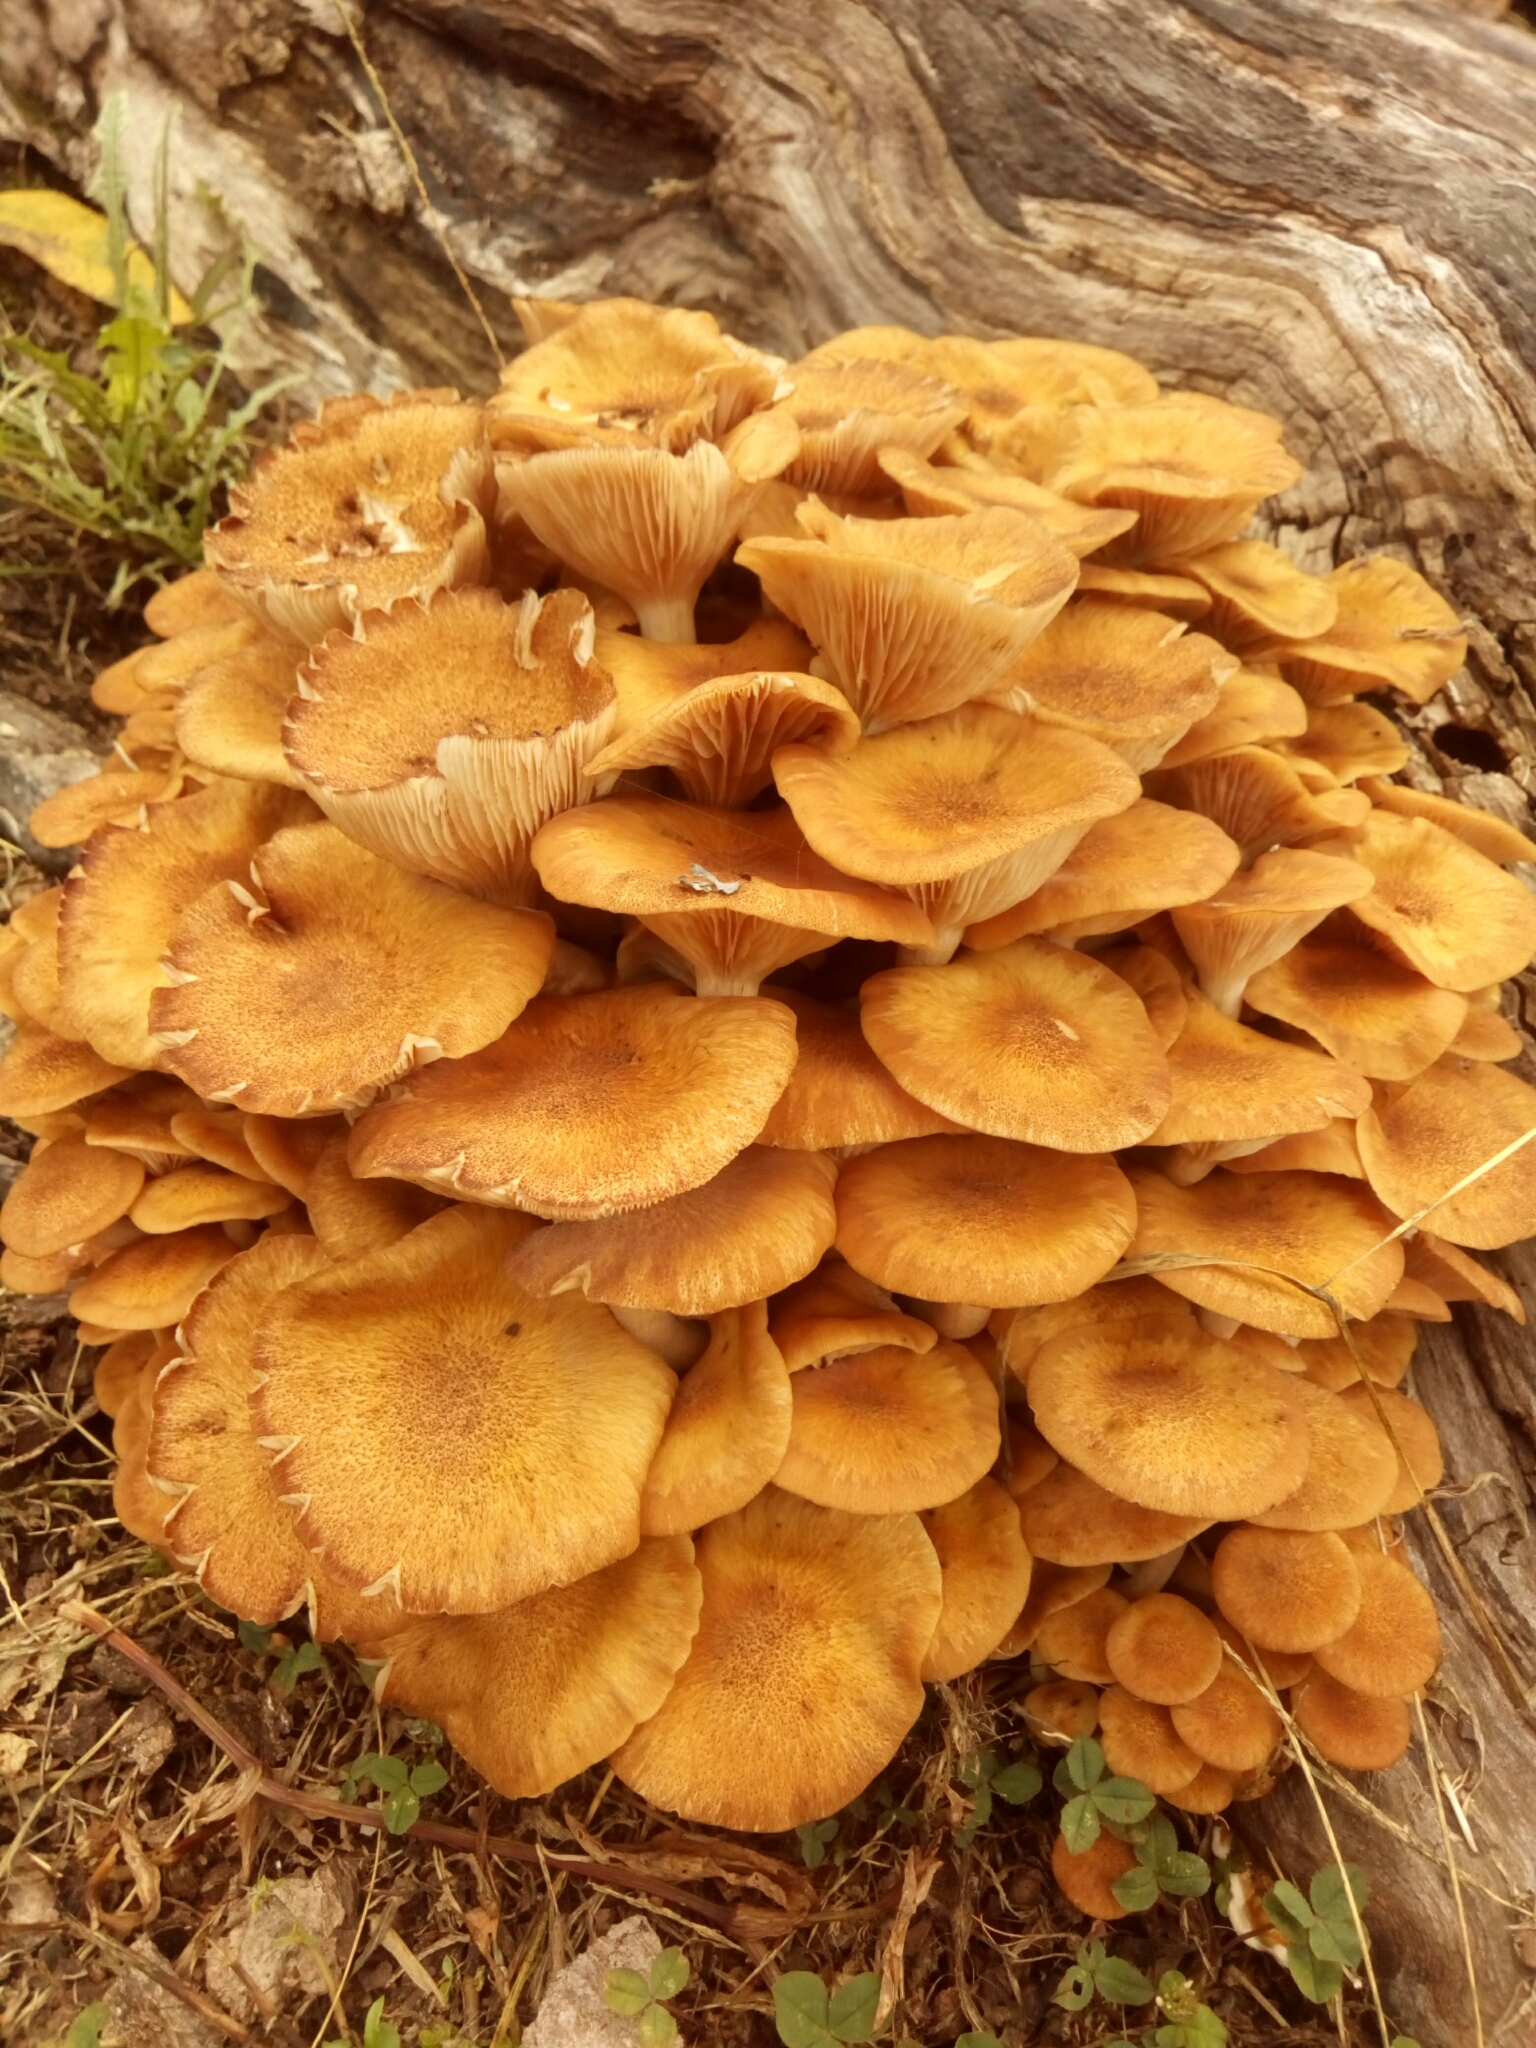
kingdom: Fungi
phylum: Basidiomycota
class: Agaricomycetes
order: Agaricales
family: Physalacriaceae
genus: Desarmillaria
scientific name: Desarmillaria caespitosa
